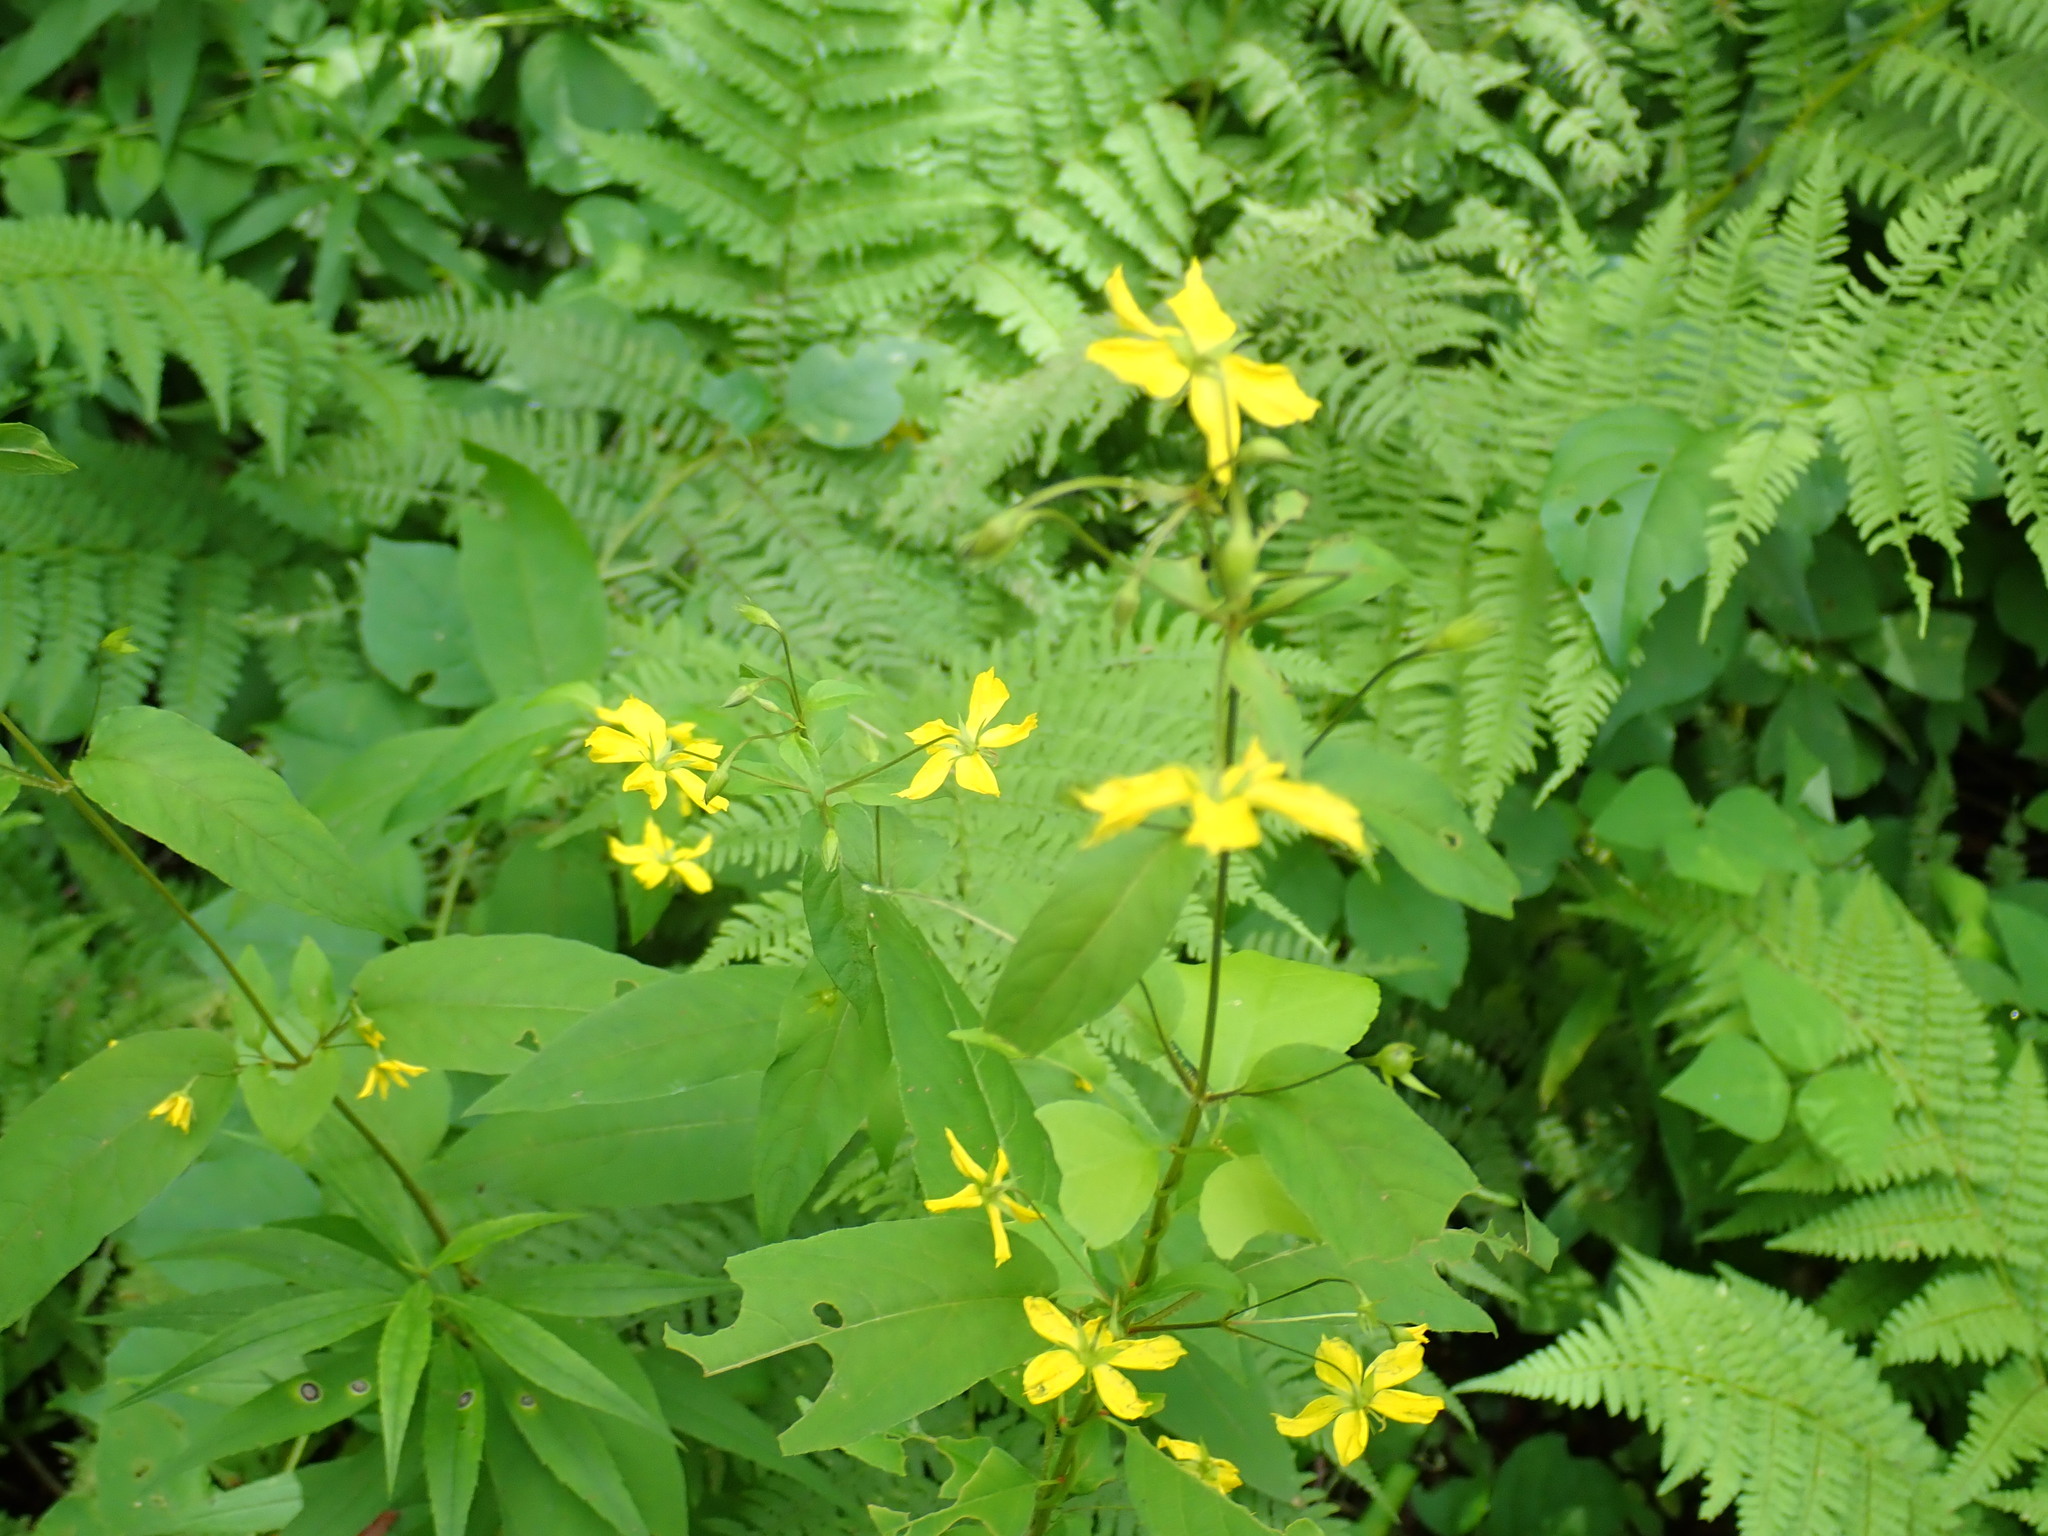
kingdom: Plantae
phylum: Tracheophyta
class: Magnoliopsida
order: Ericales
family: Primulaceae
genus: Lysimachia
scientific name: Lysimachia ciliata
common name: Fringed loosestrife
